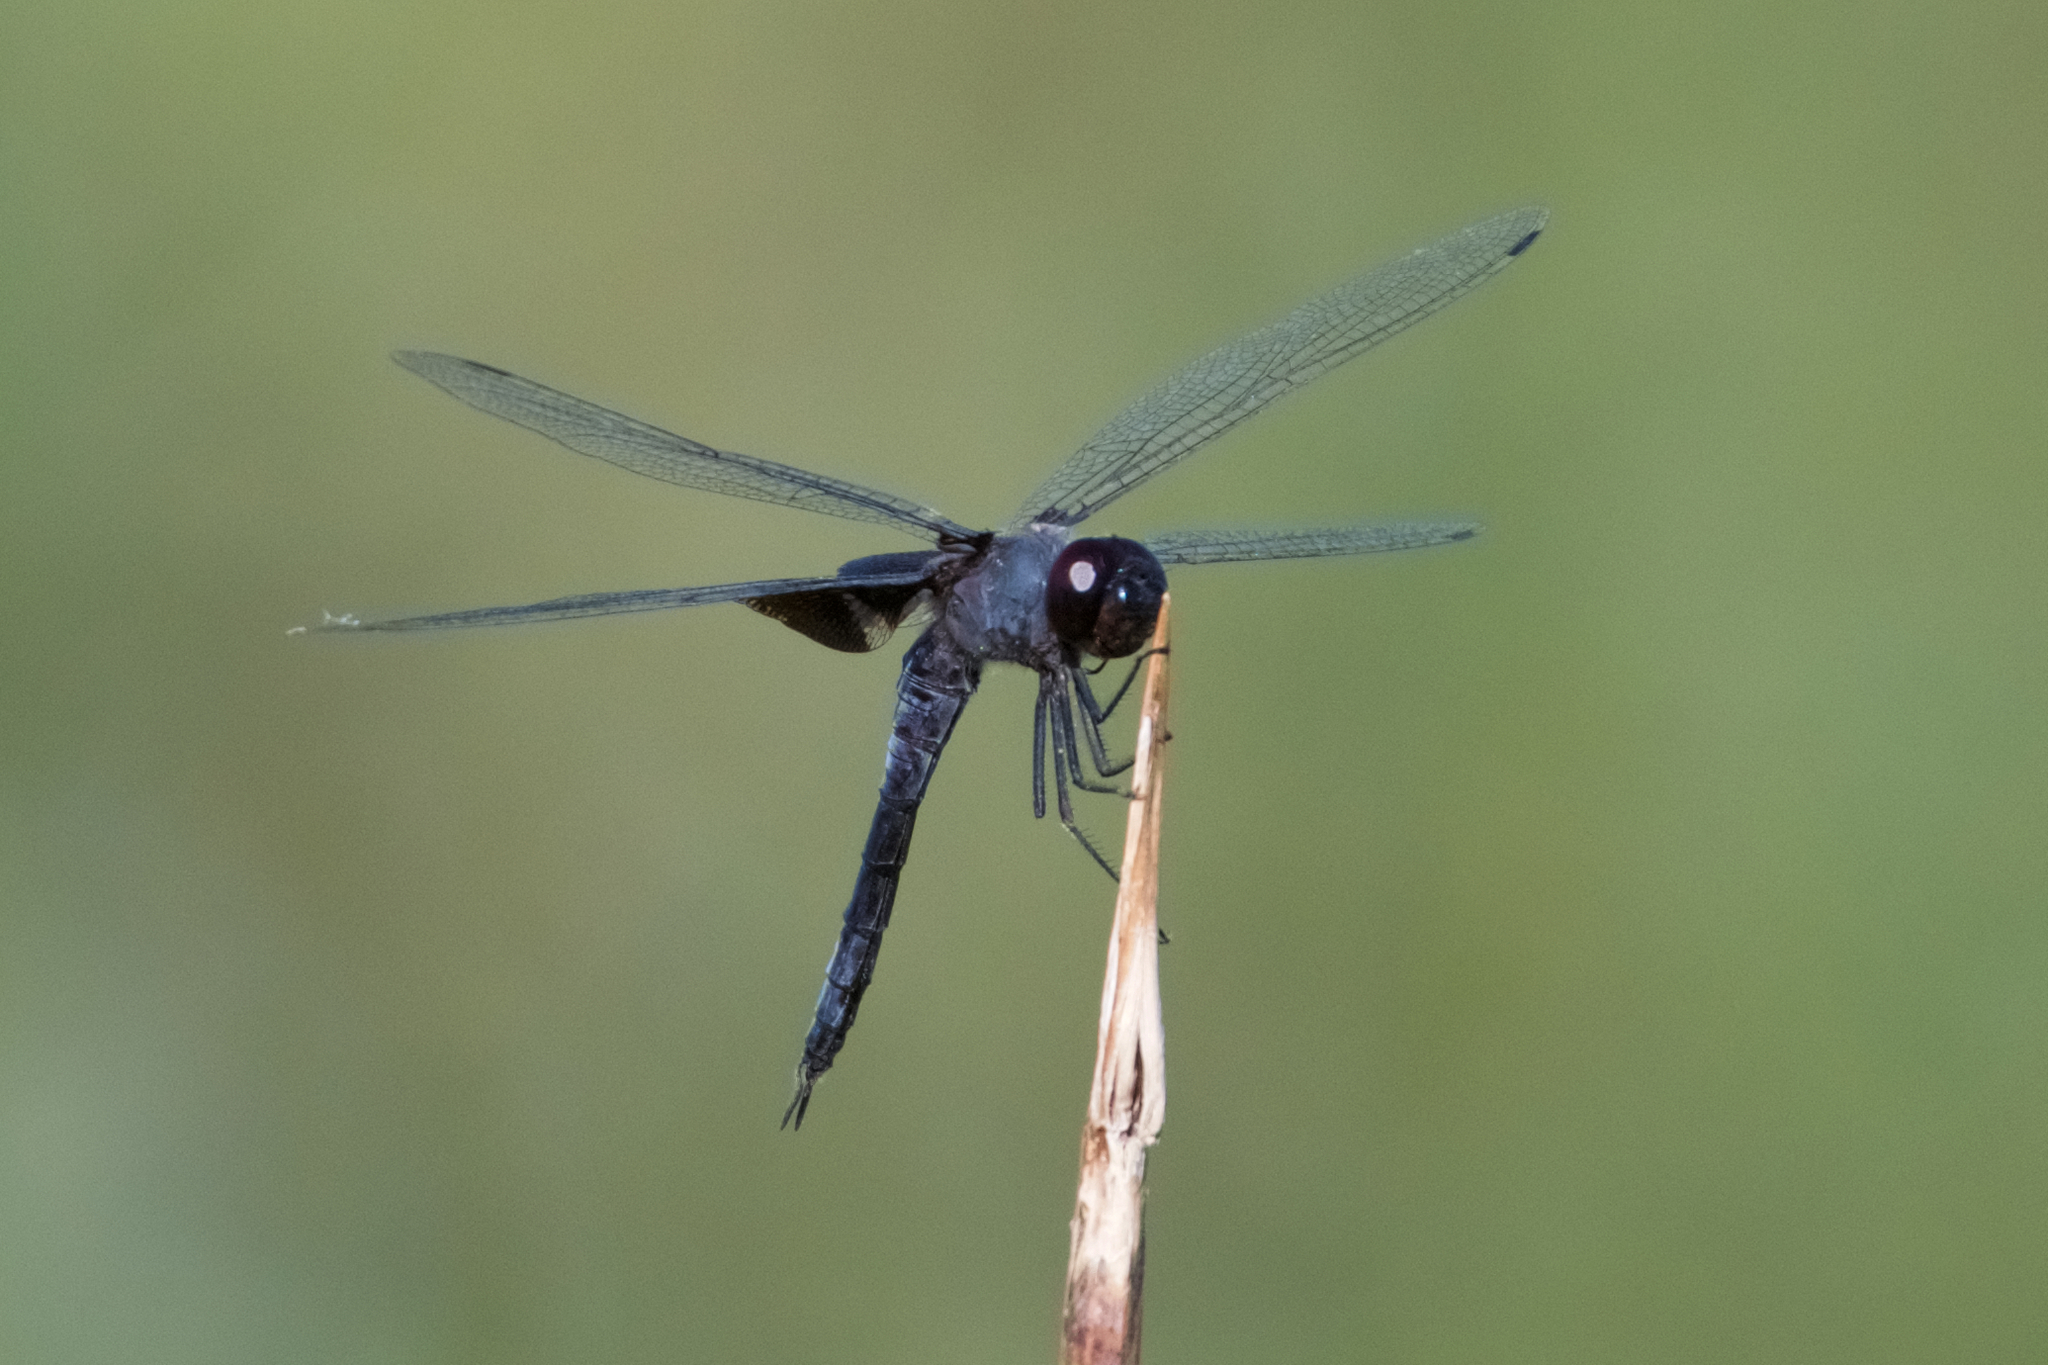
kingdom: Animalia
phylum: Arthropoda
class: Insecta
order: Odonata
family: Libellulidae
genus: Tramea
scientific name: Tramea lacerata
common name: Black saddlebags
